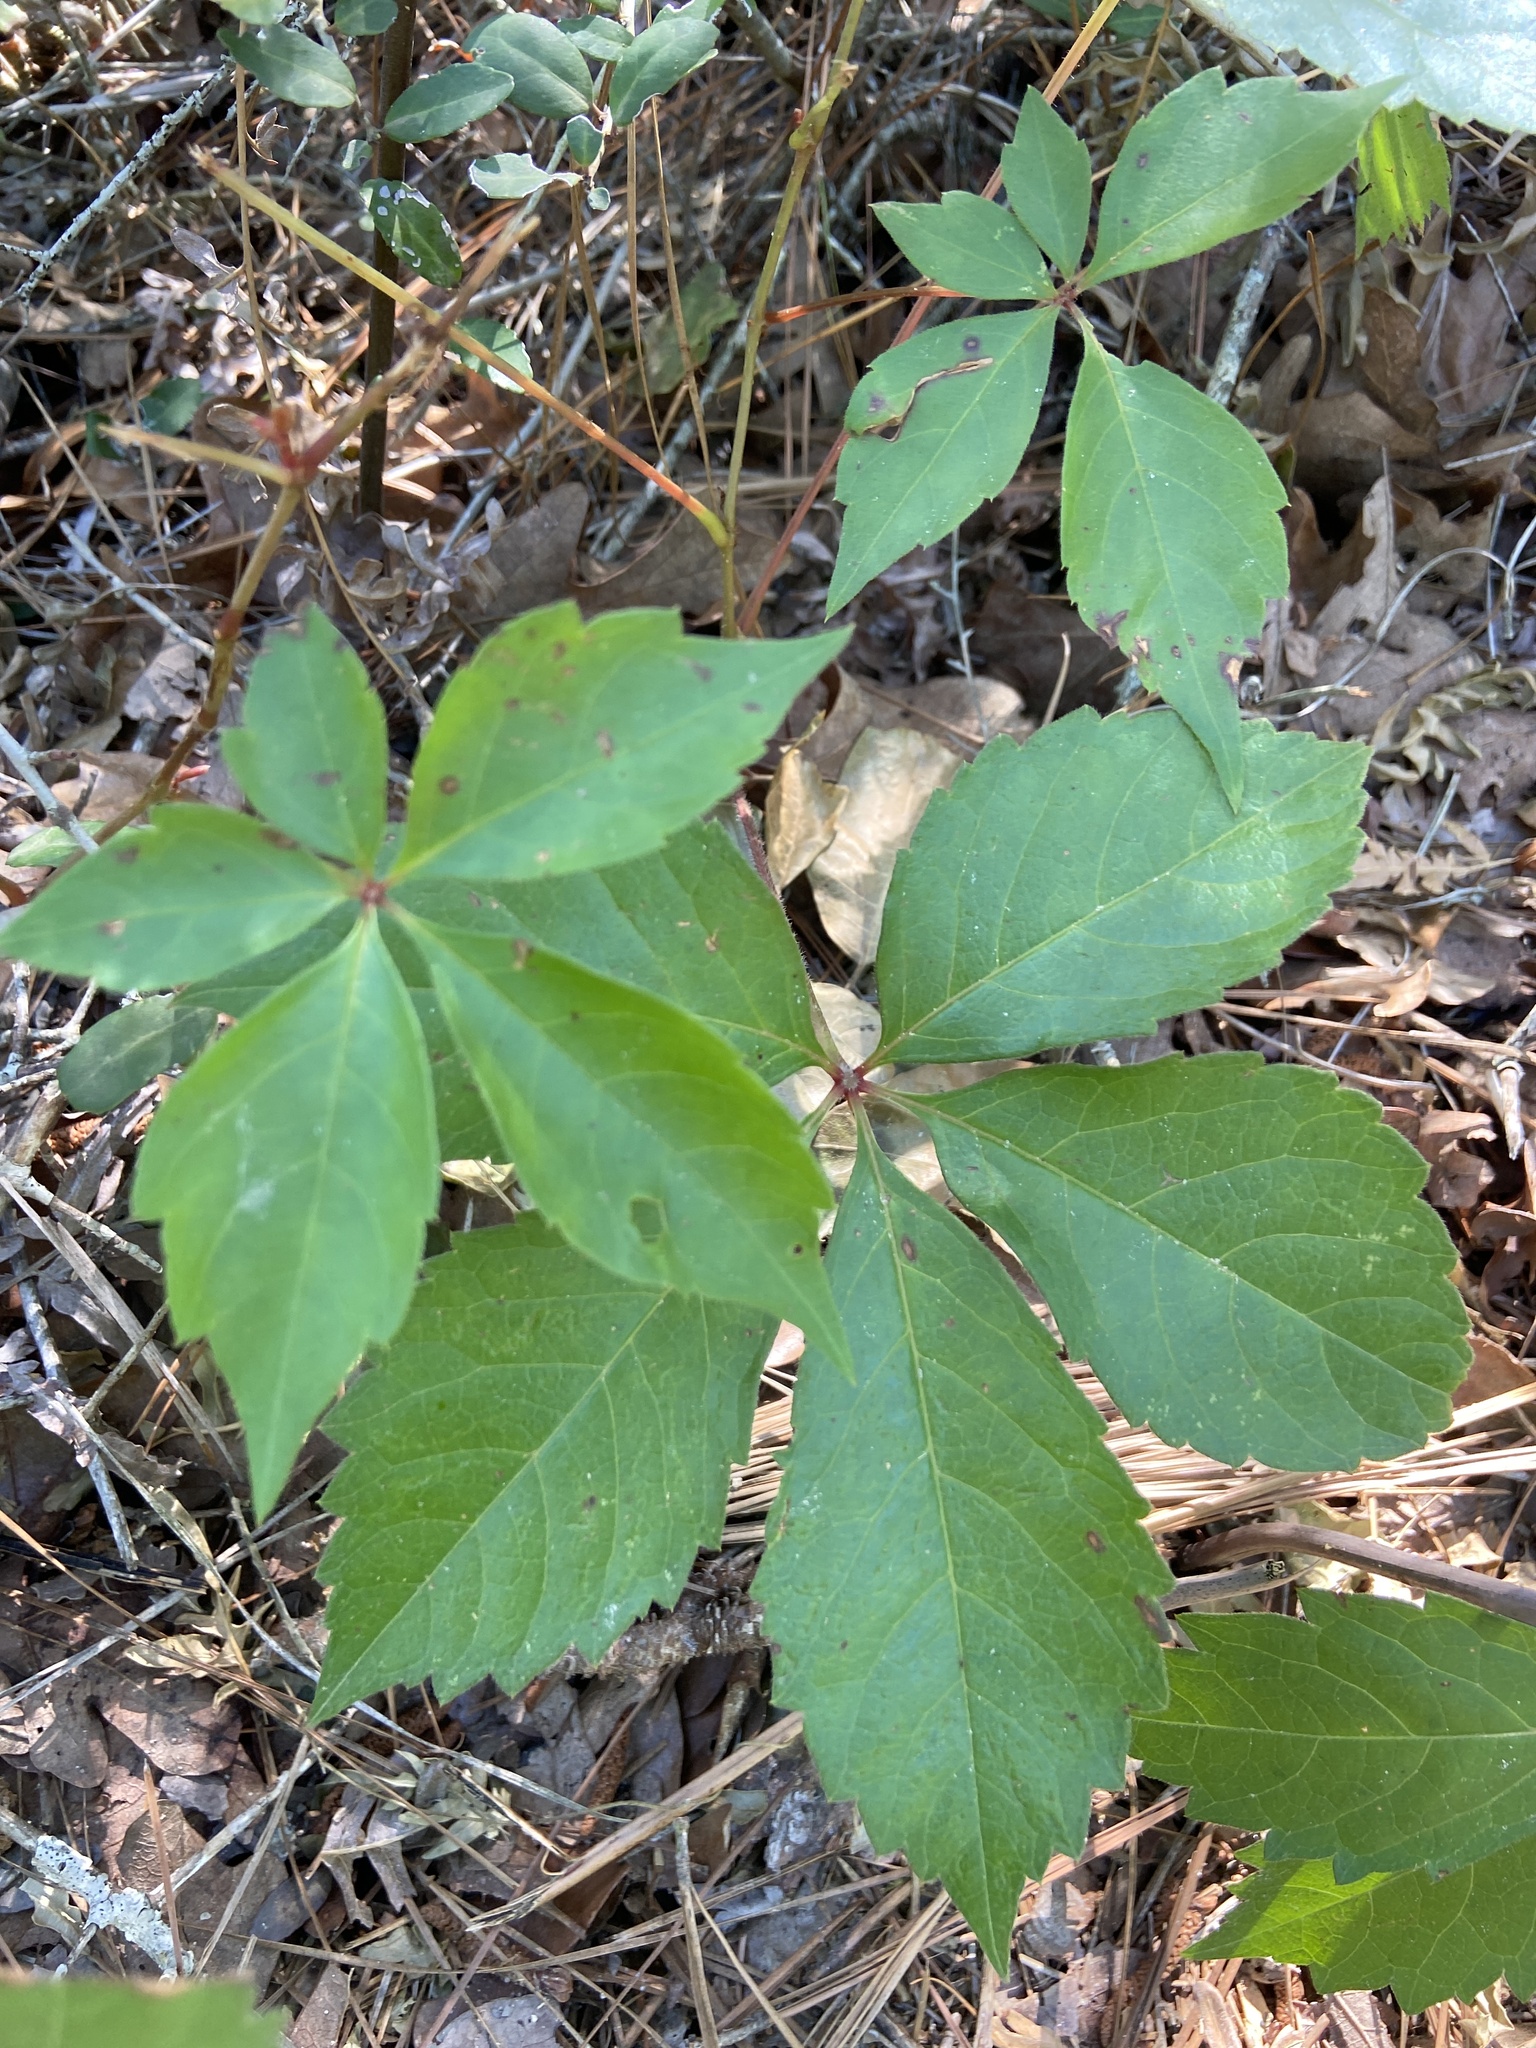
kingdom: Plantae
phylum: Tracheophyta
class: Magnoliopsida
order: Vitales
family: Vitaceae
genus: Parthenocissus
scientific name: Parthenocissus quinquefolia
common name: Virginia-creeper
